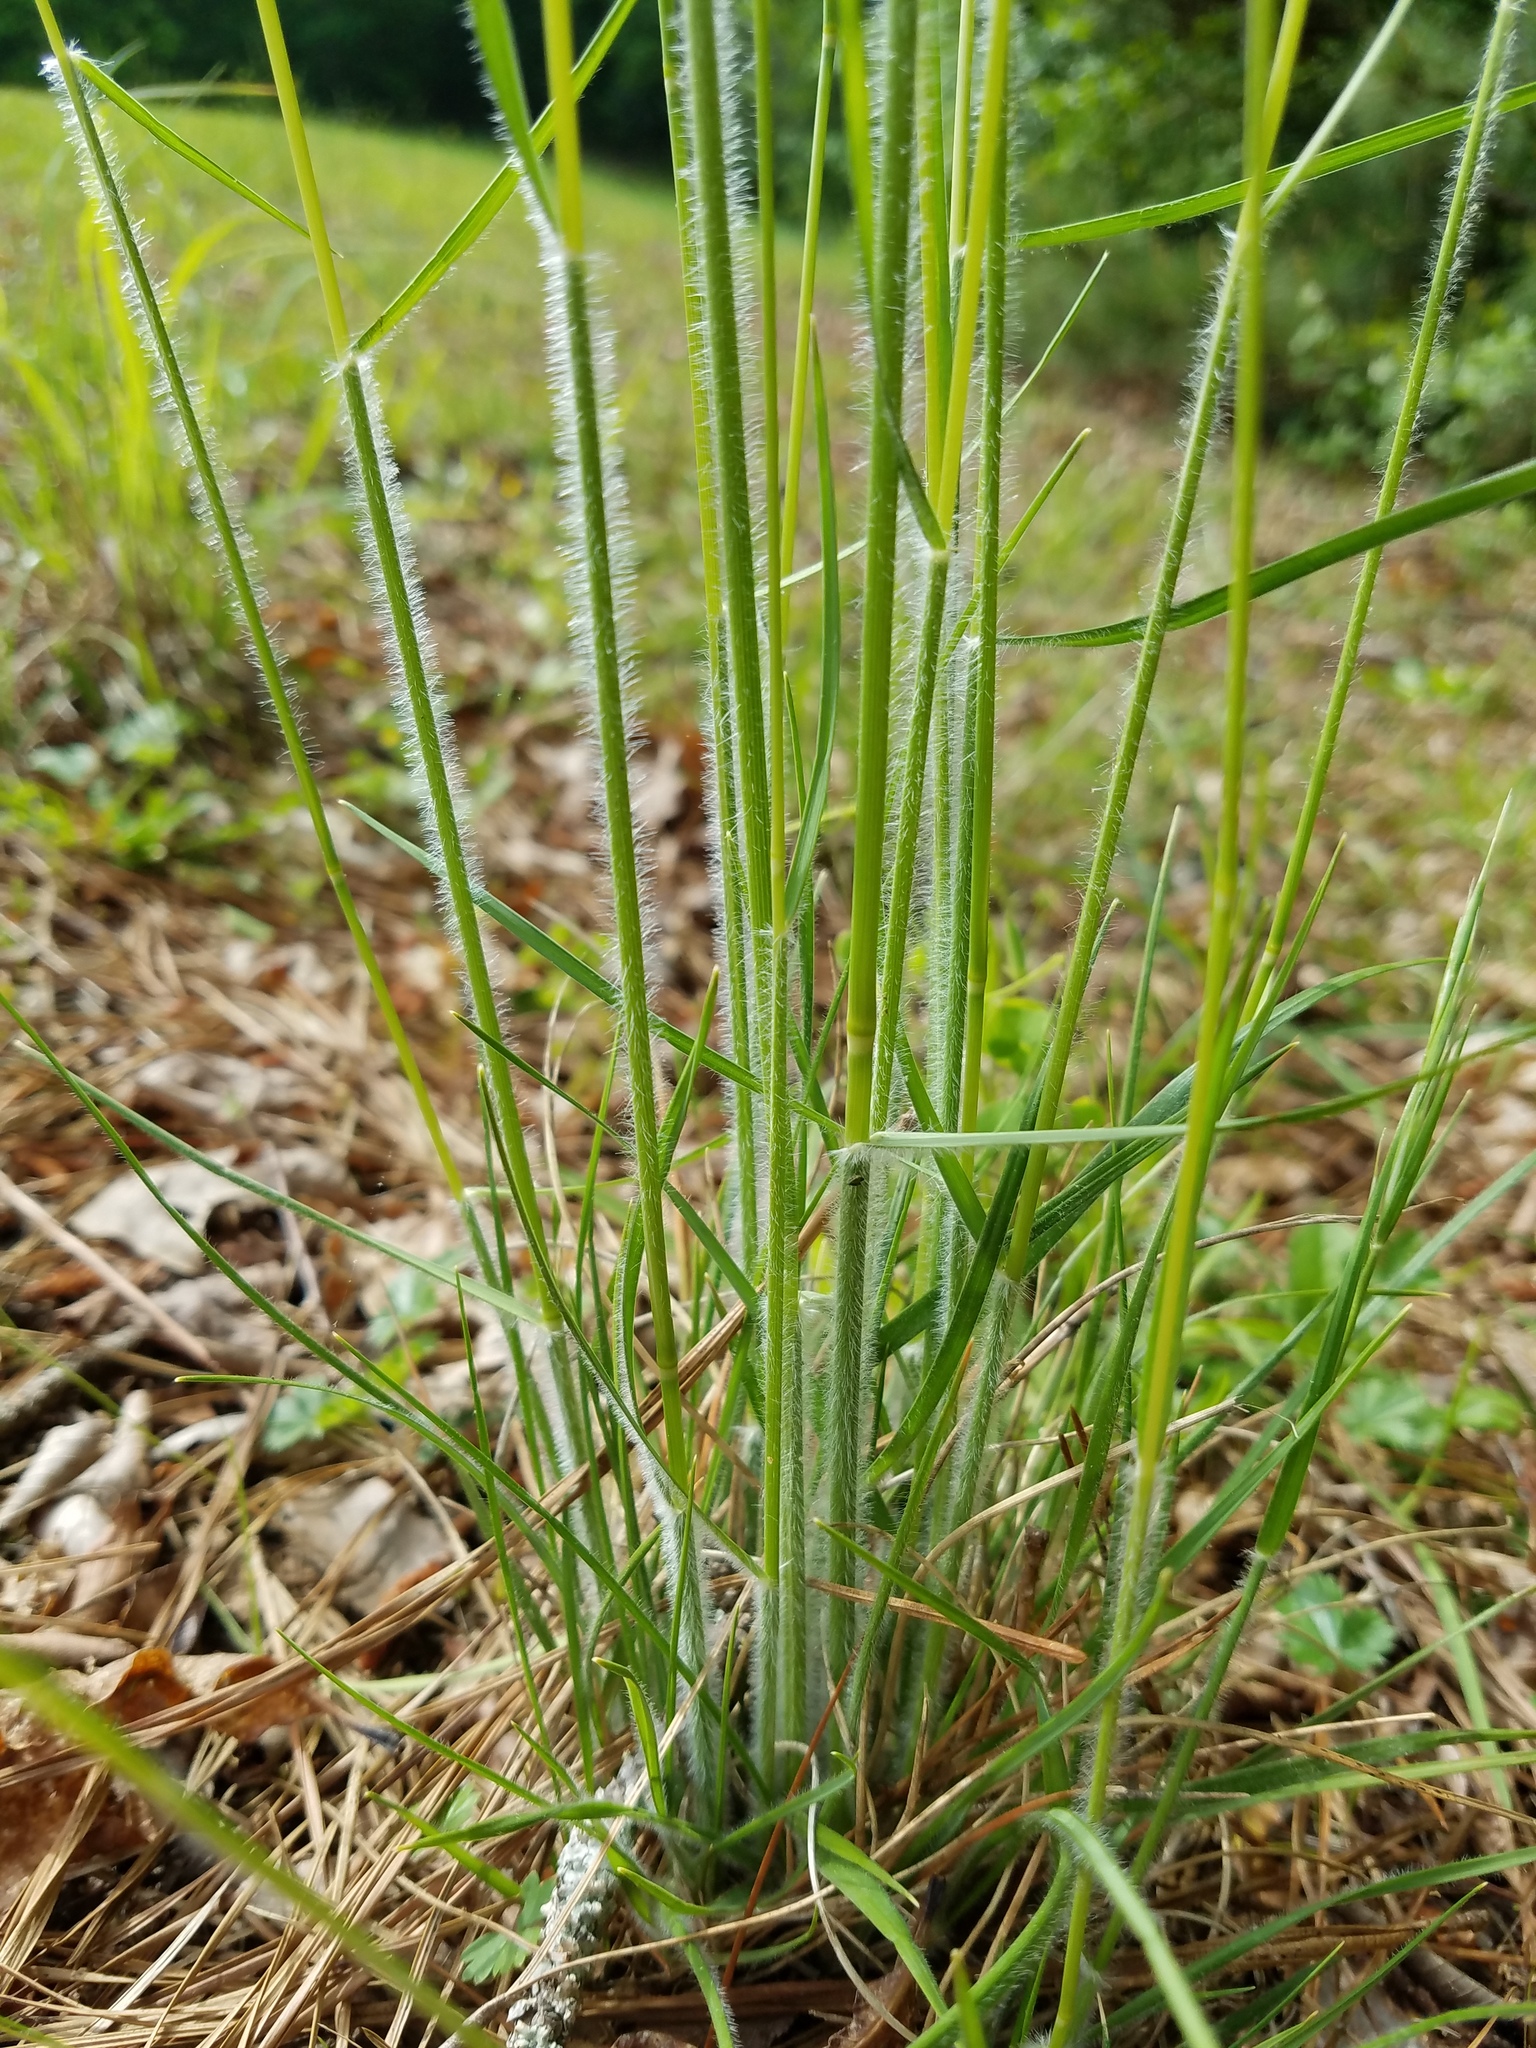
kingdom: Plantae
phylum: Tracheophyta
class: Liliopsida
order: Poales
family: Poaceae
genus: Danthonia
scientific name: Danthonia sericea
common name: Downy danthonia
